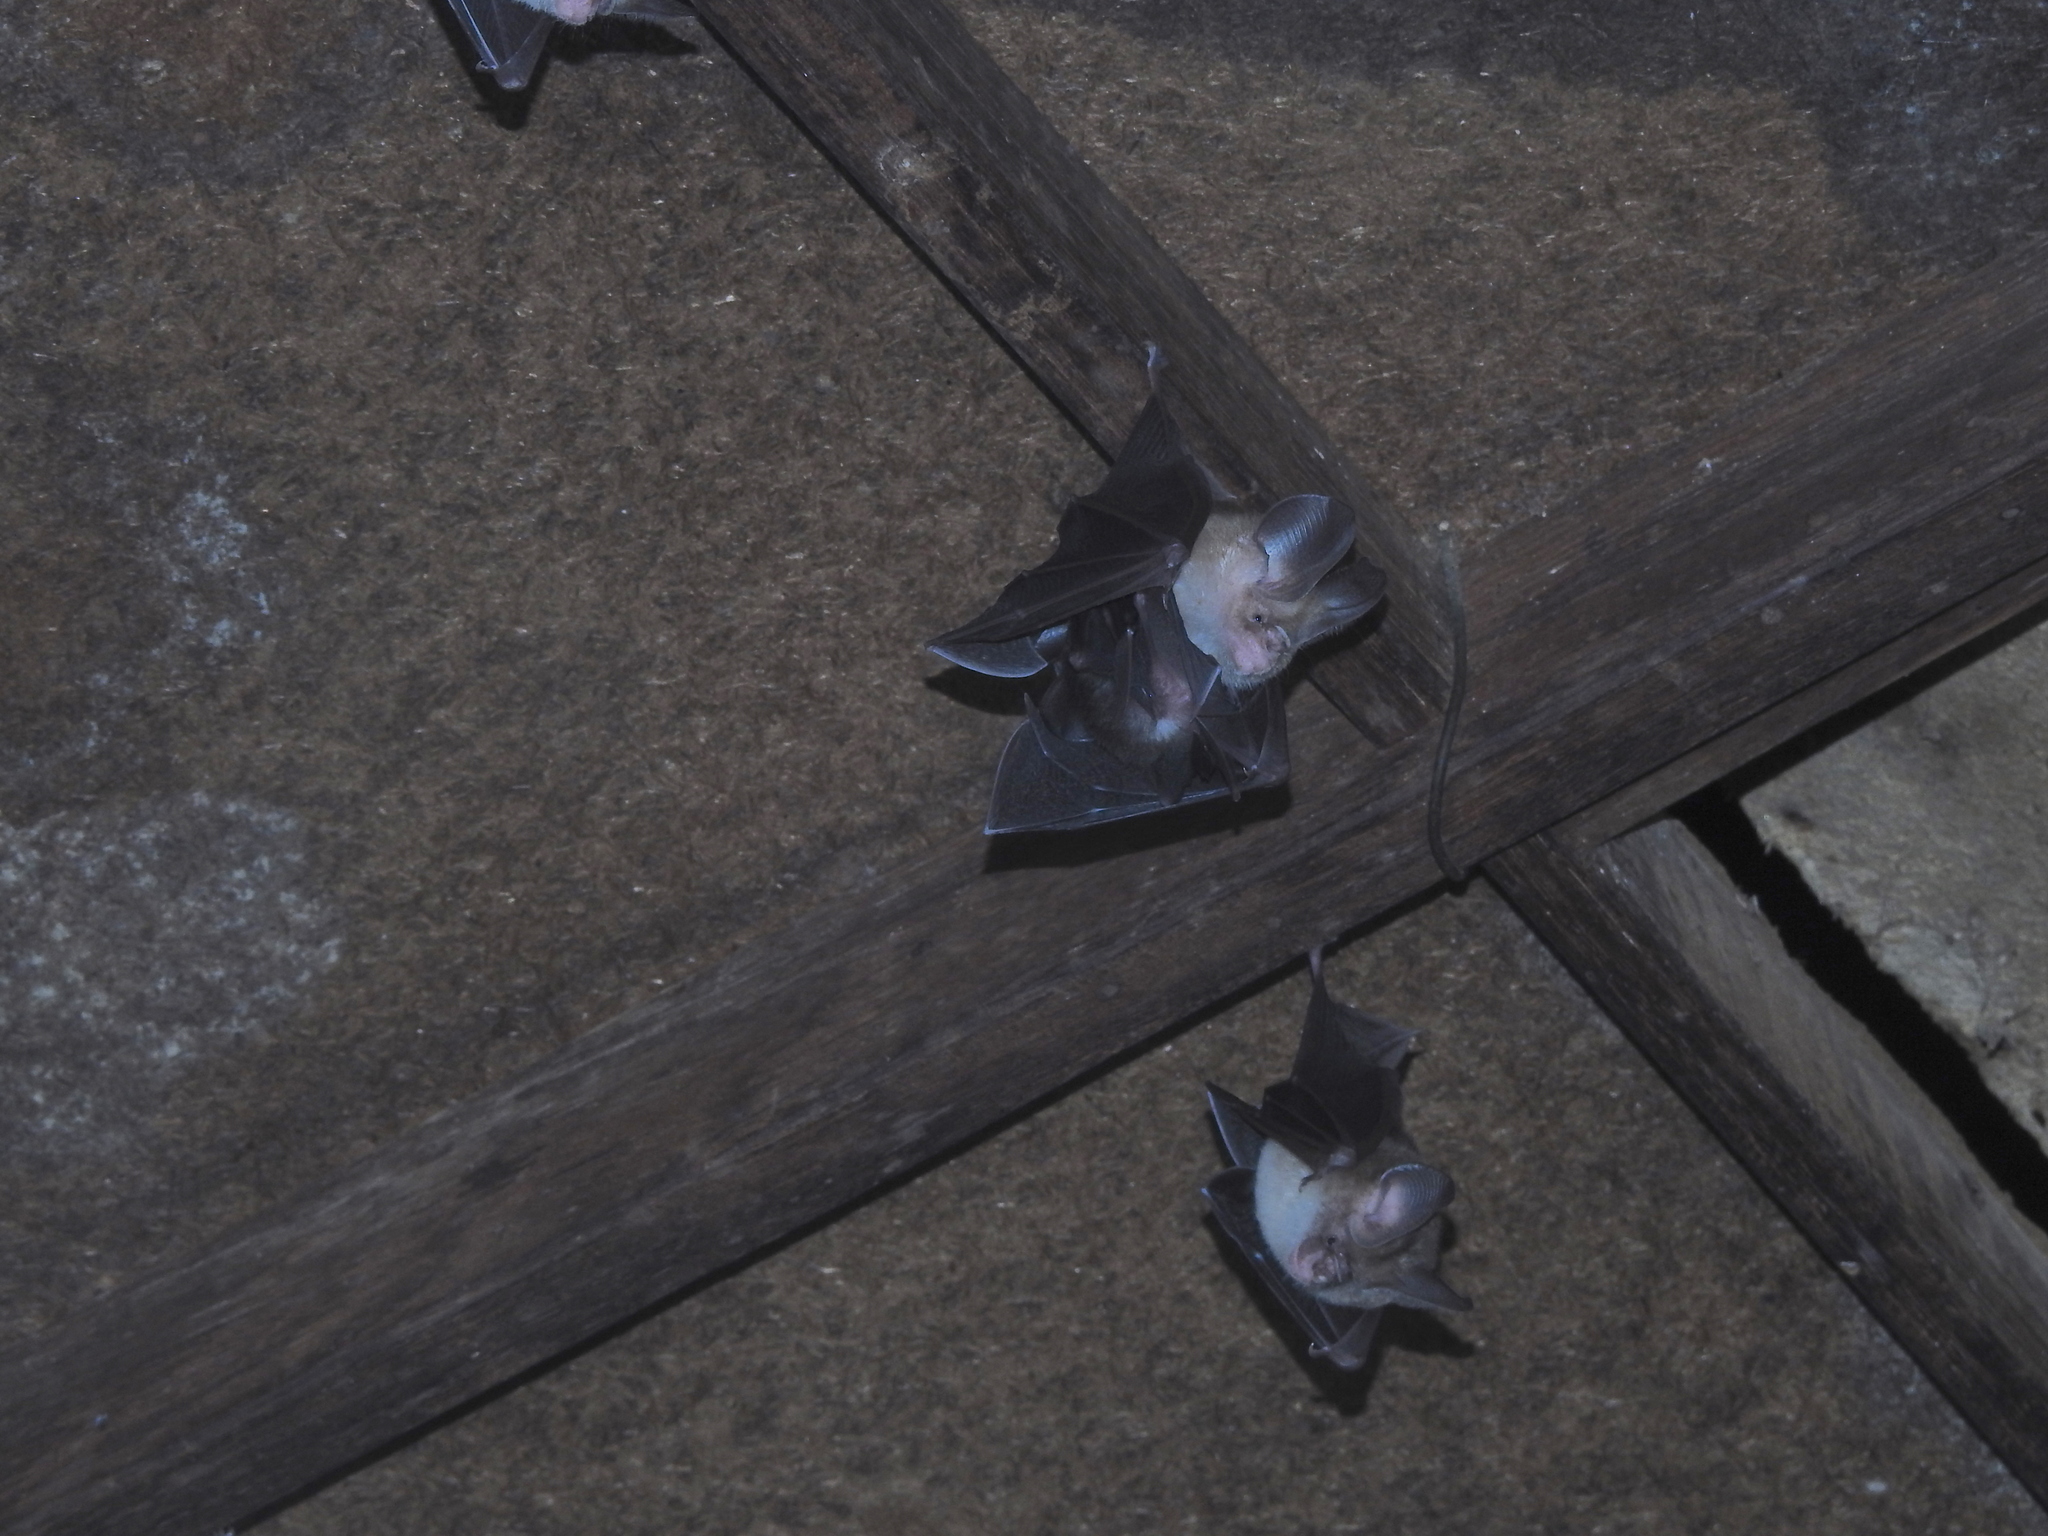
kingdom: Animalia
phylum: Chordata
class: Mammalia
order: Chiroptera
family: Hipposideridae
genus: Hipposideros
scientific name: Hipposideros fulvus
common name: Fulvus leaf-nosed bat
